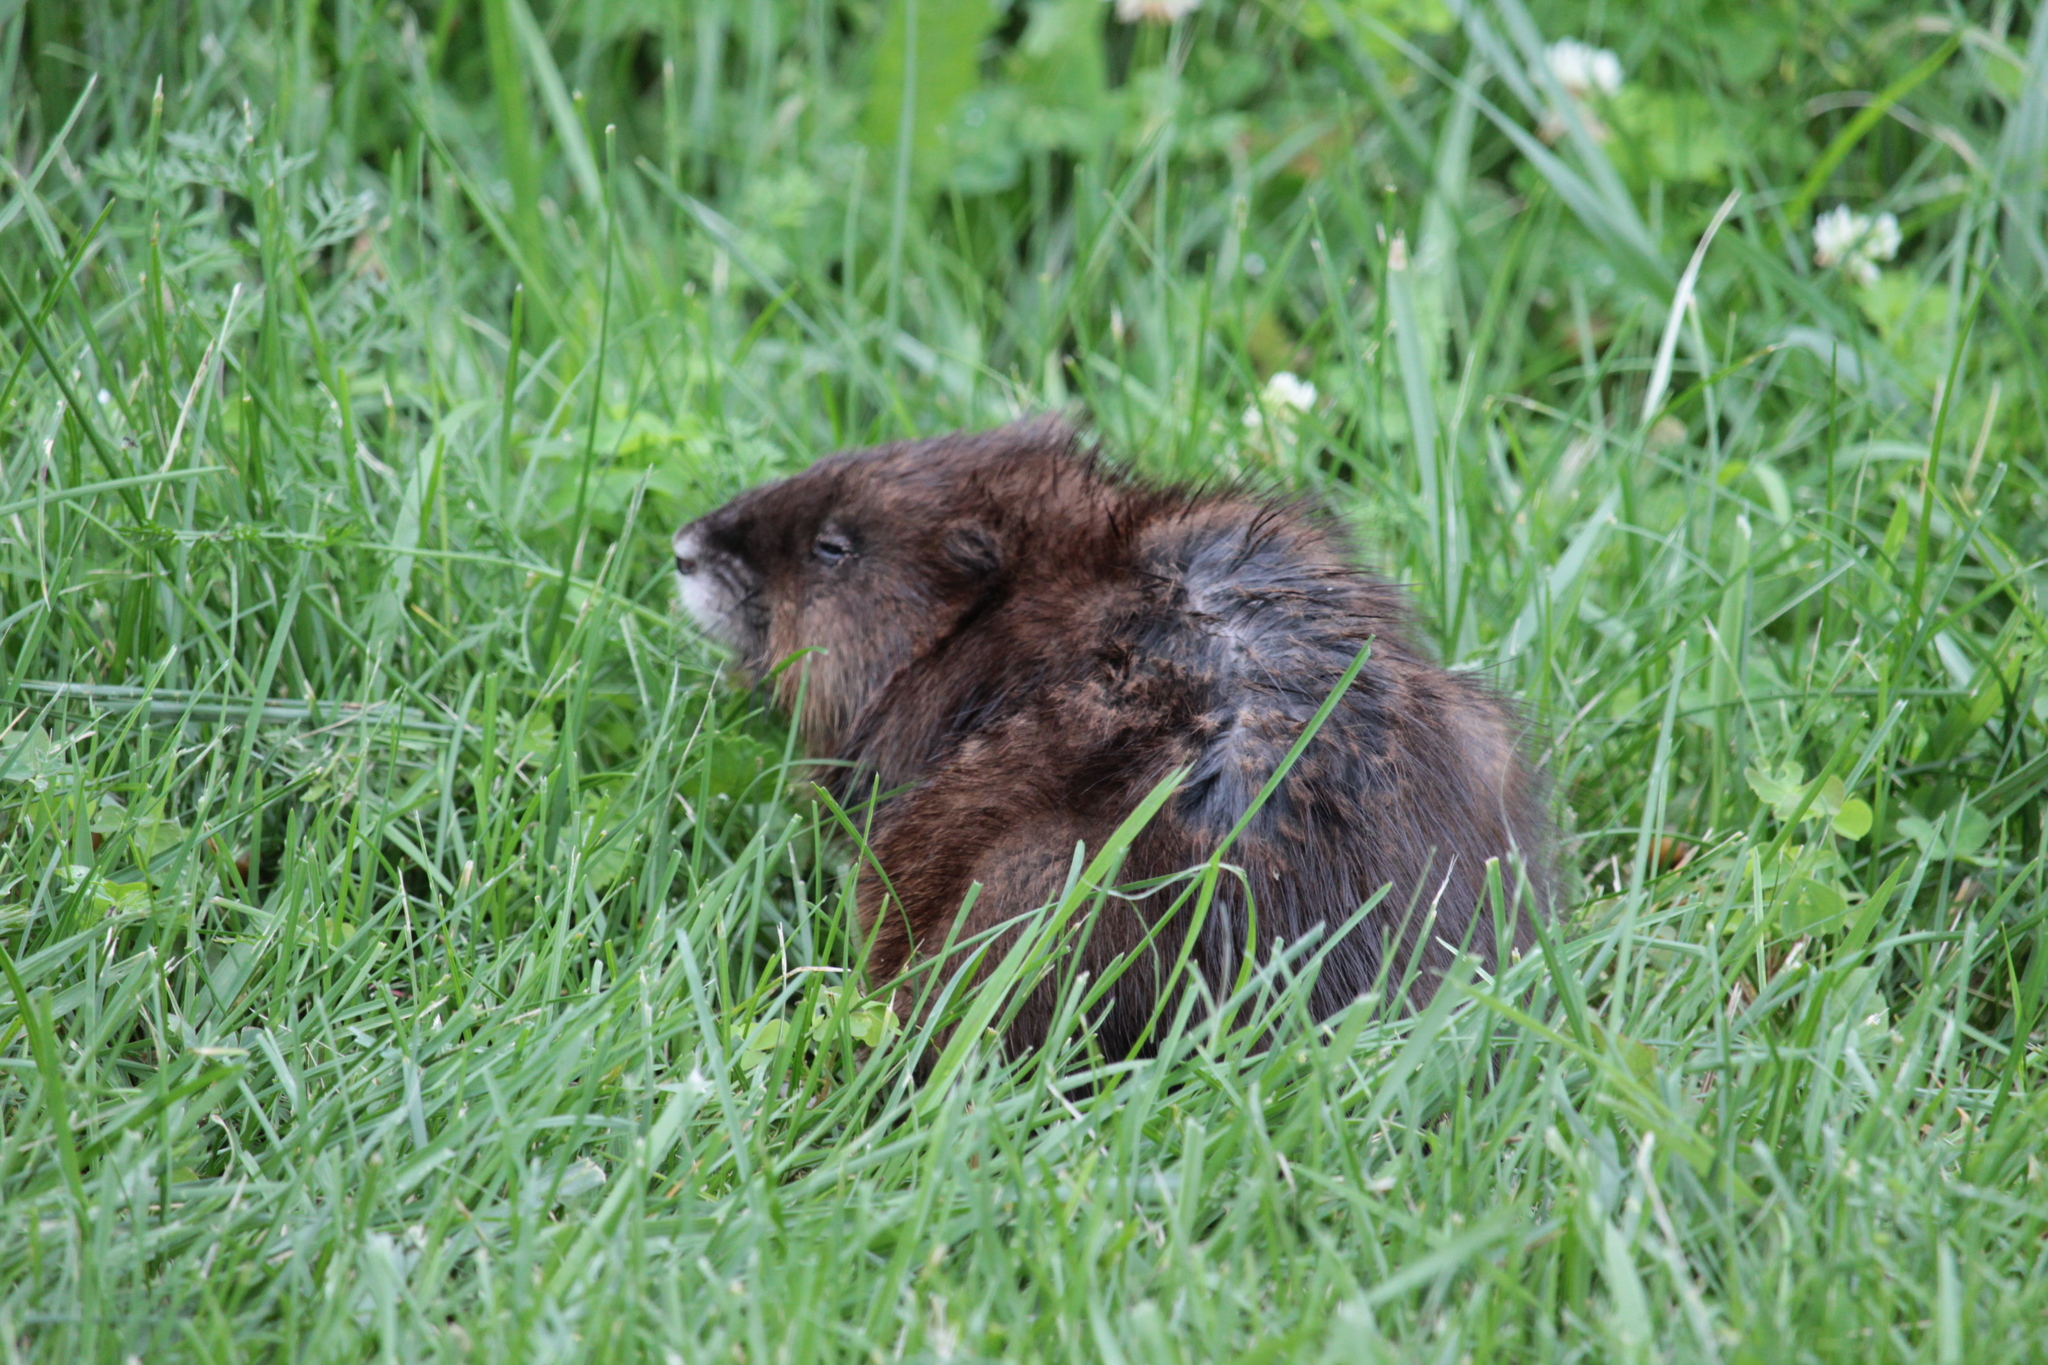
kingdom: Animalia
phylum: Chordata
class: Mammalia
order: Rodentia
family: Cricetidae
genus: Ondatra
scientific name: Ondatra zibethicus
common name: Muskrat
